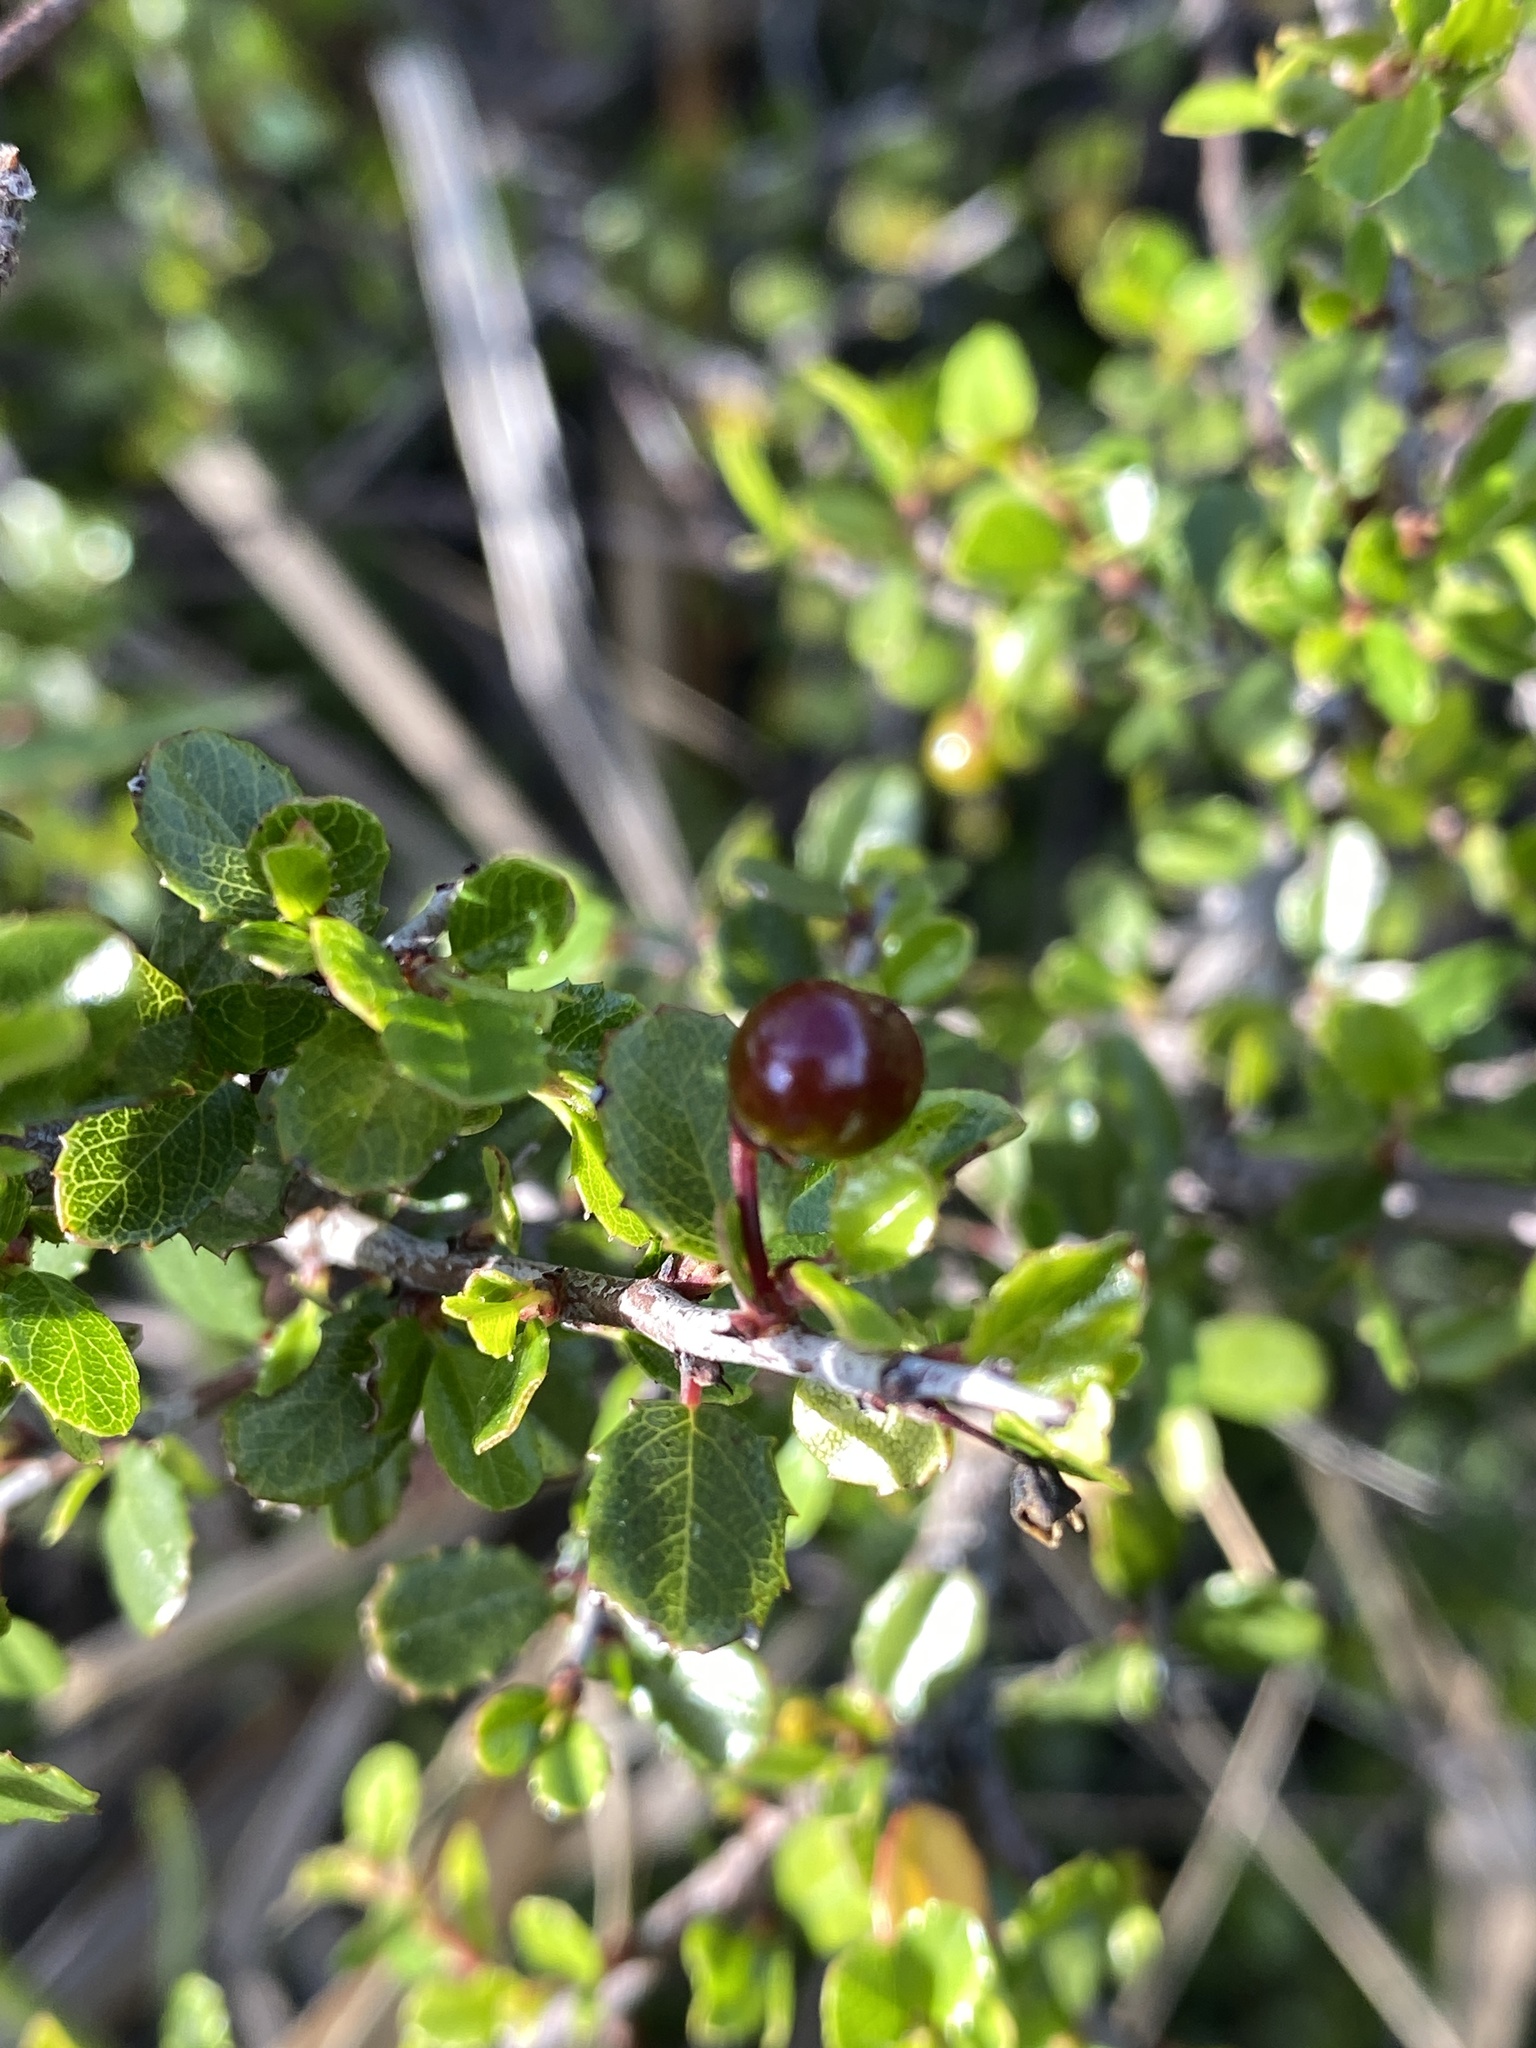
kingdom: Plantae
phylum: Tracheophyta
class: Magnoliopsida
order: Rosales
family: Rhamnaceae
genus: Endotropis
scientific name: Endotropis crocea
